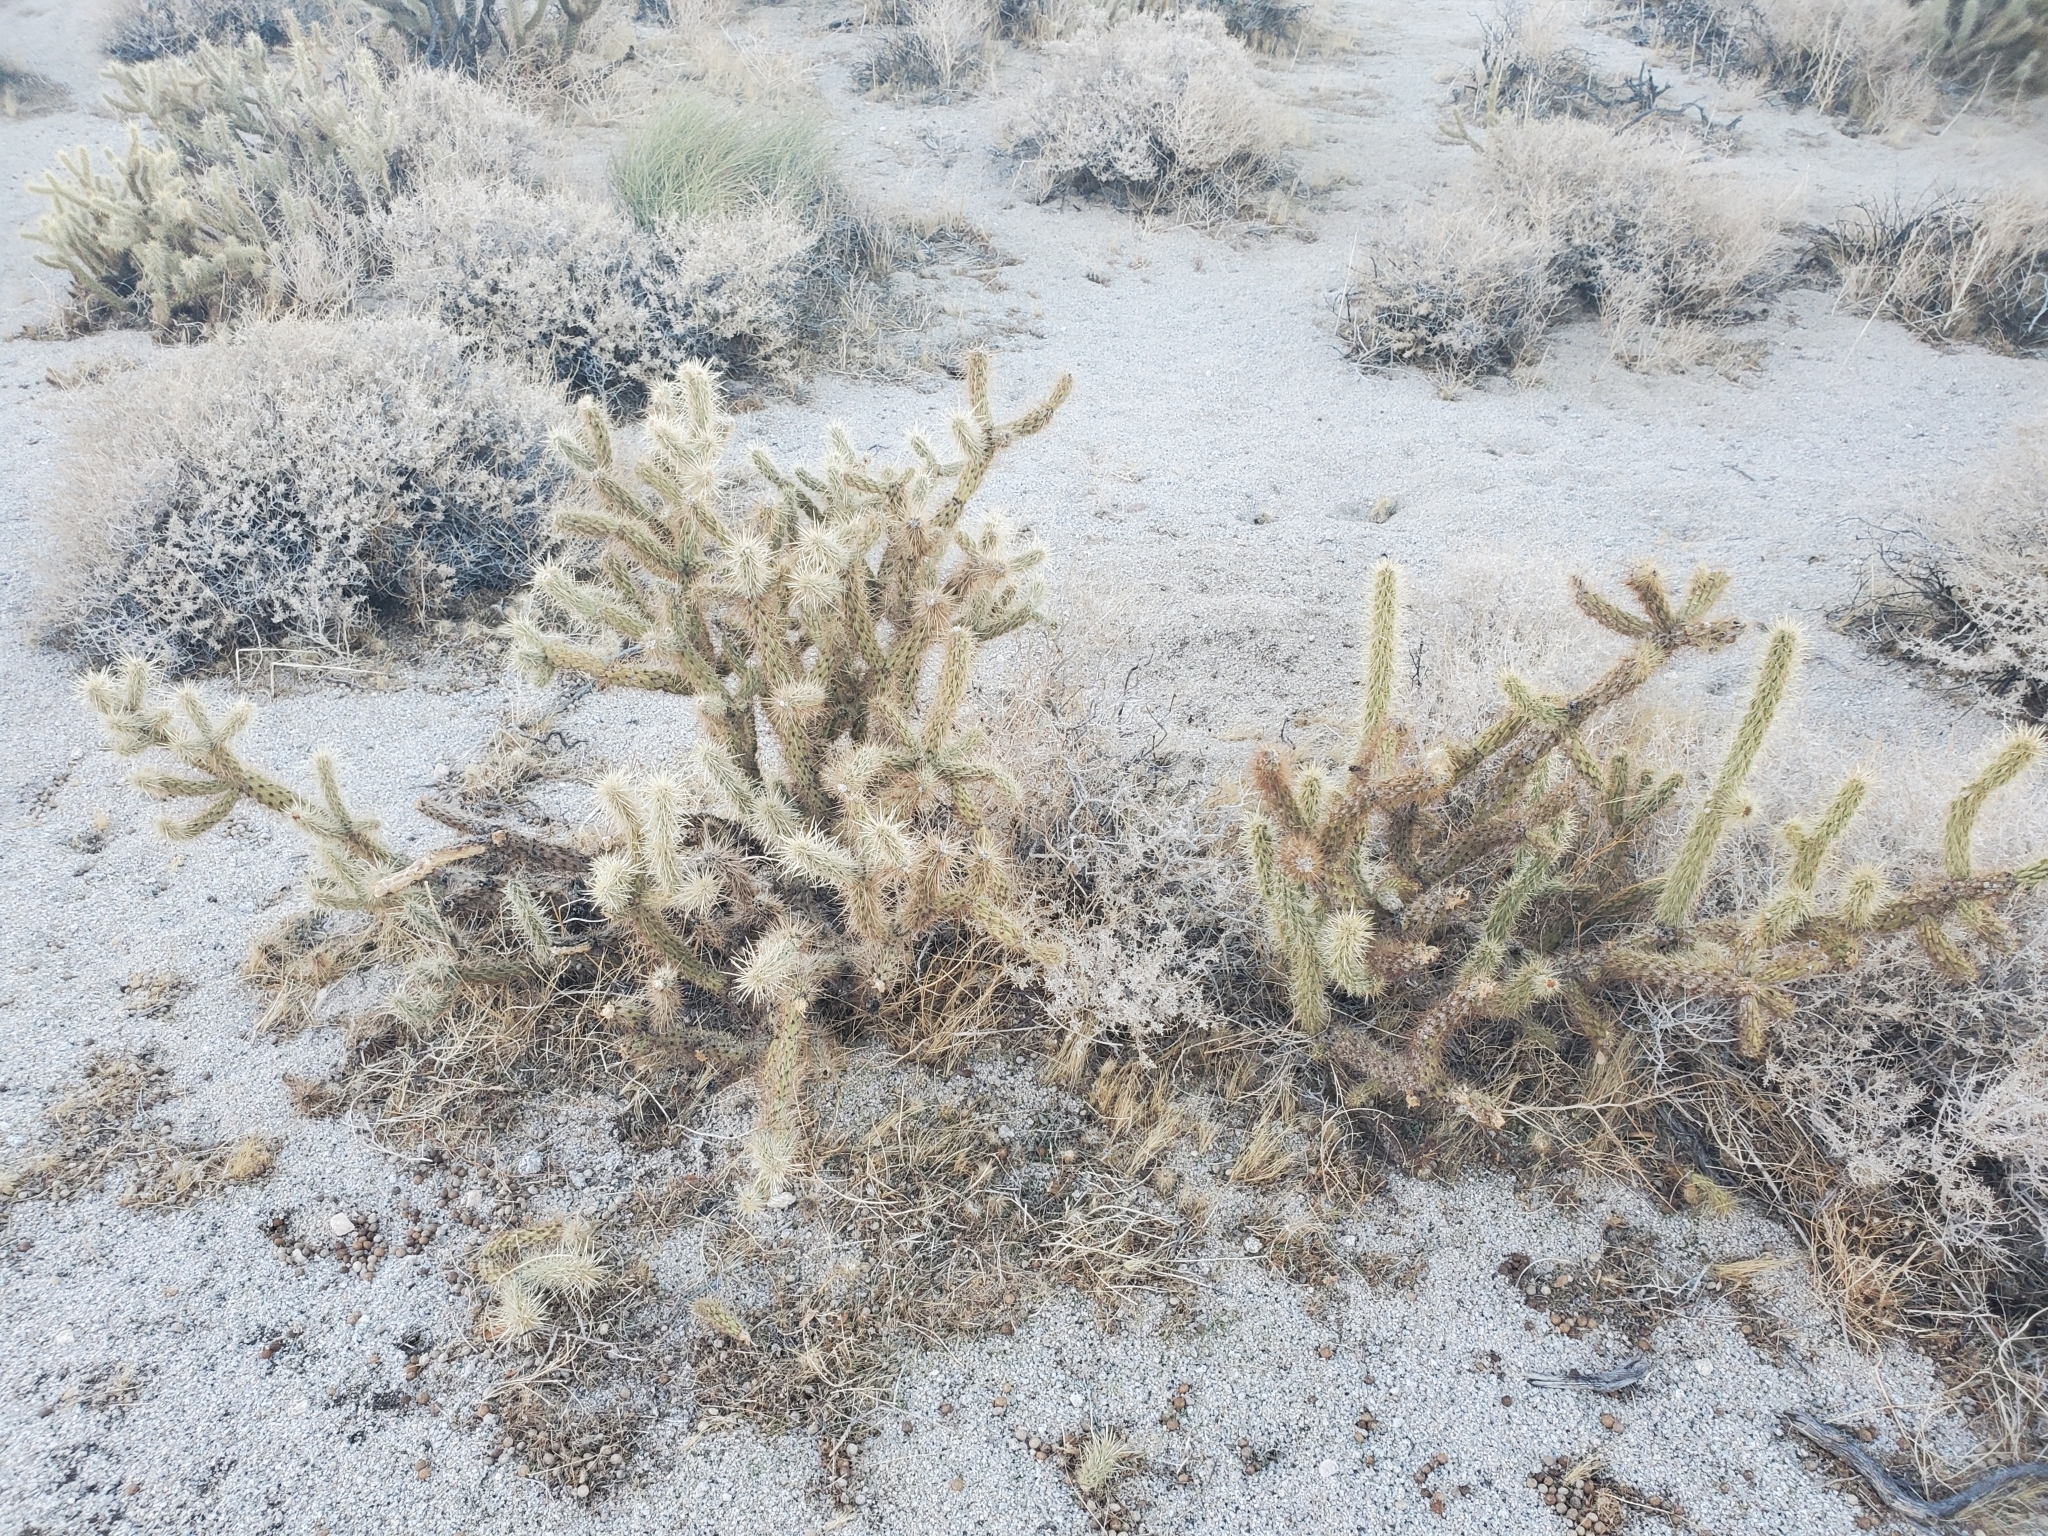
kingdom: Plantae
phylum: Tracheophyta
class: Magnoliopsida
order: Caryophyllales
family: Cactaceae
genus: Cylindropuntia
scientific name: Cylindropuntia ganderi
